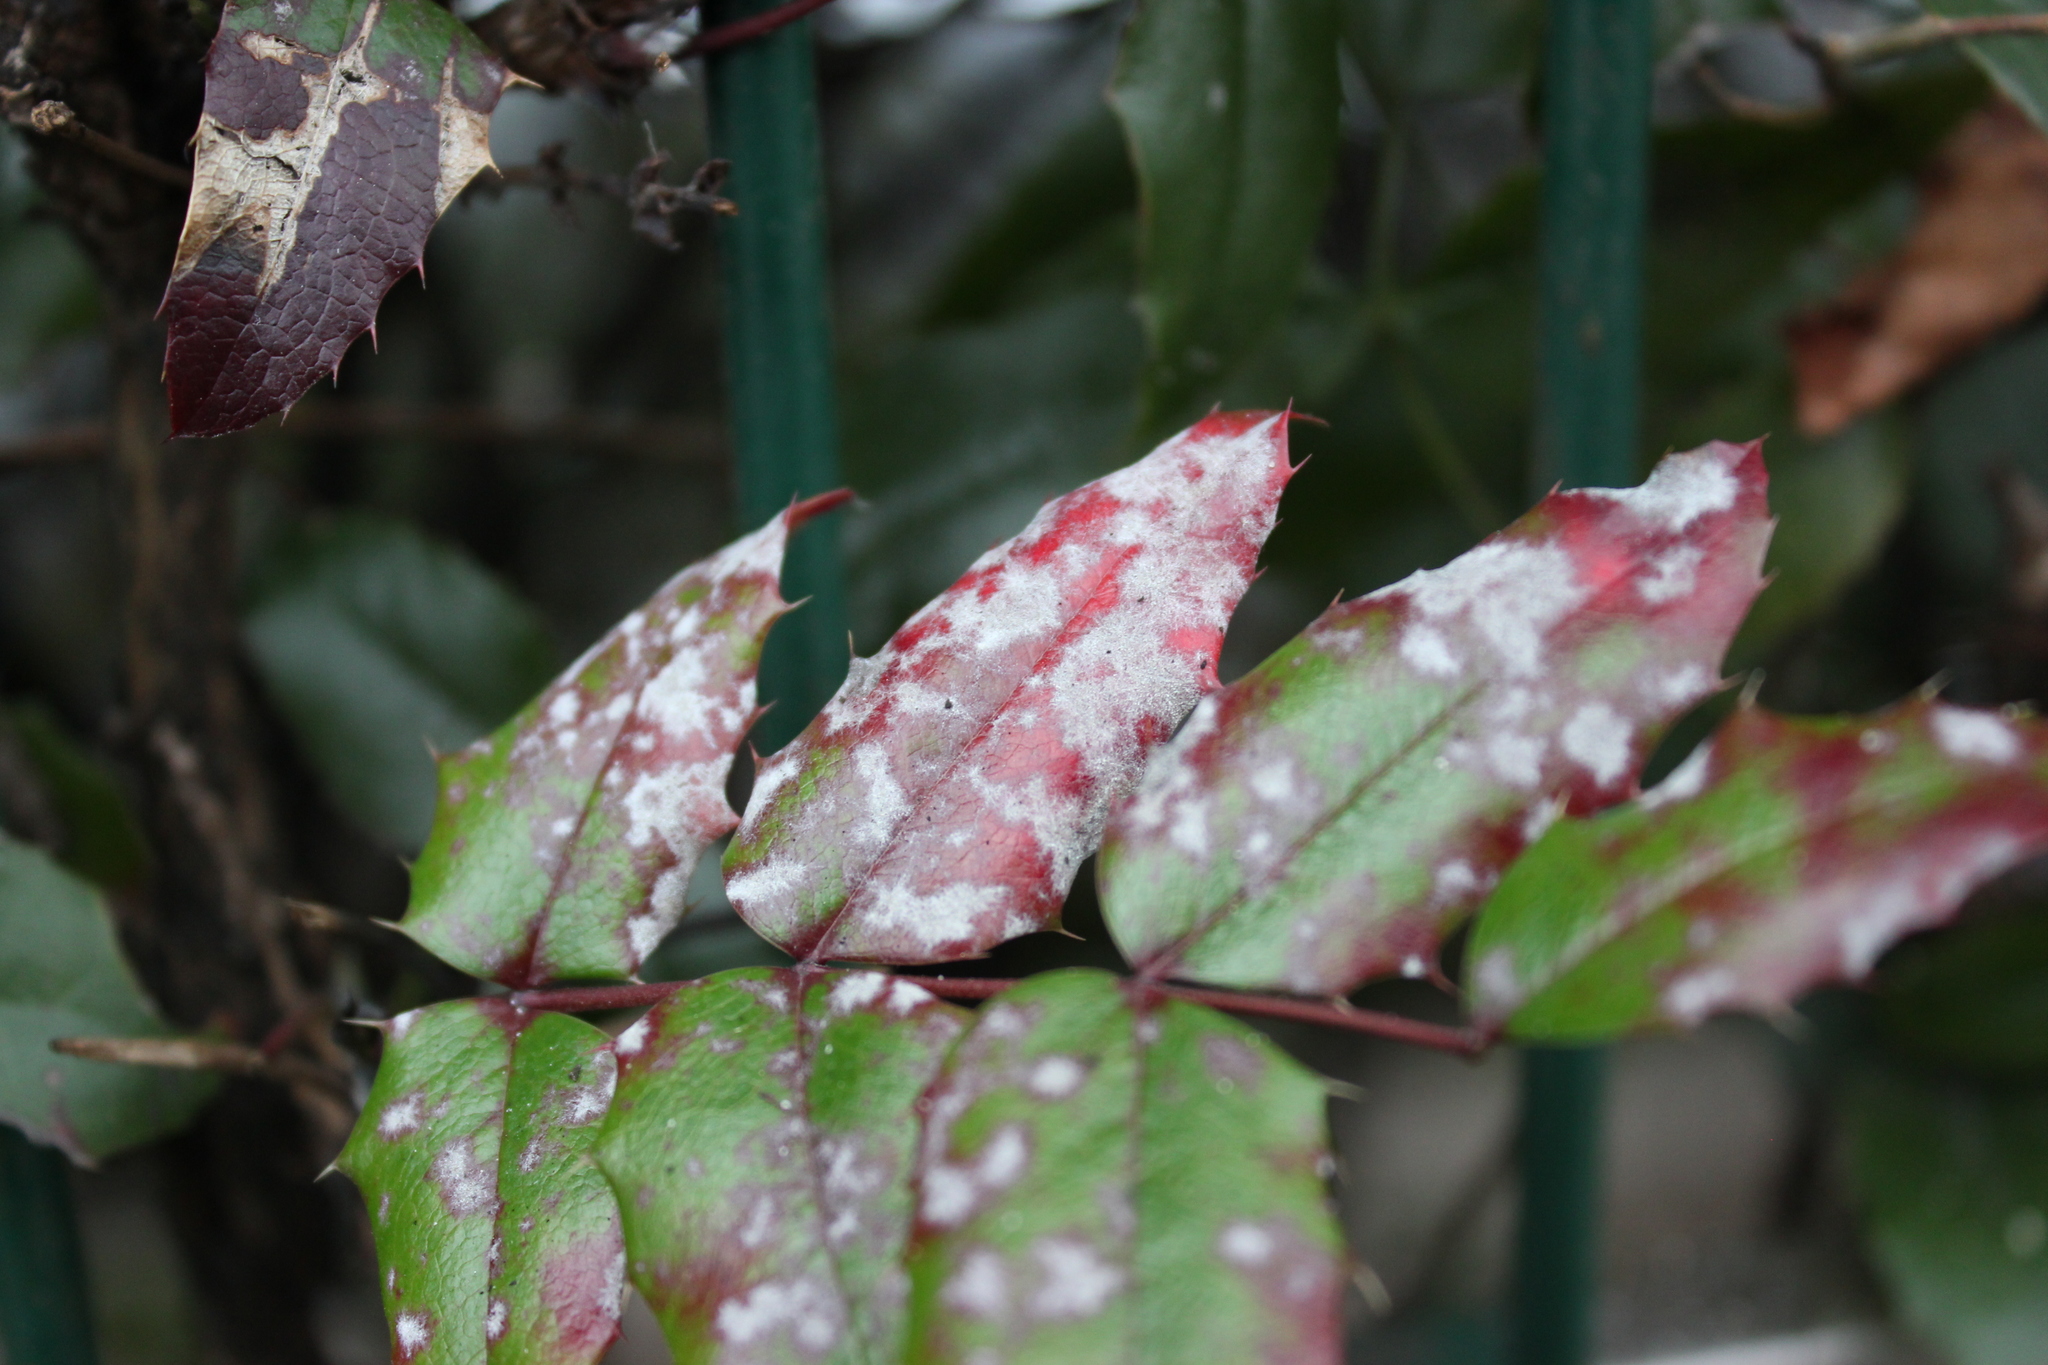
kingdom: Fungi
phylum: Ascomycota
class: Leotiomycetes
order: Helotiales
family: Erysiphaceae
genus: Erysiphe
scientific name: Erysiphe berberidis
